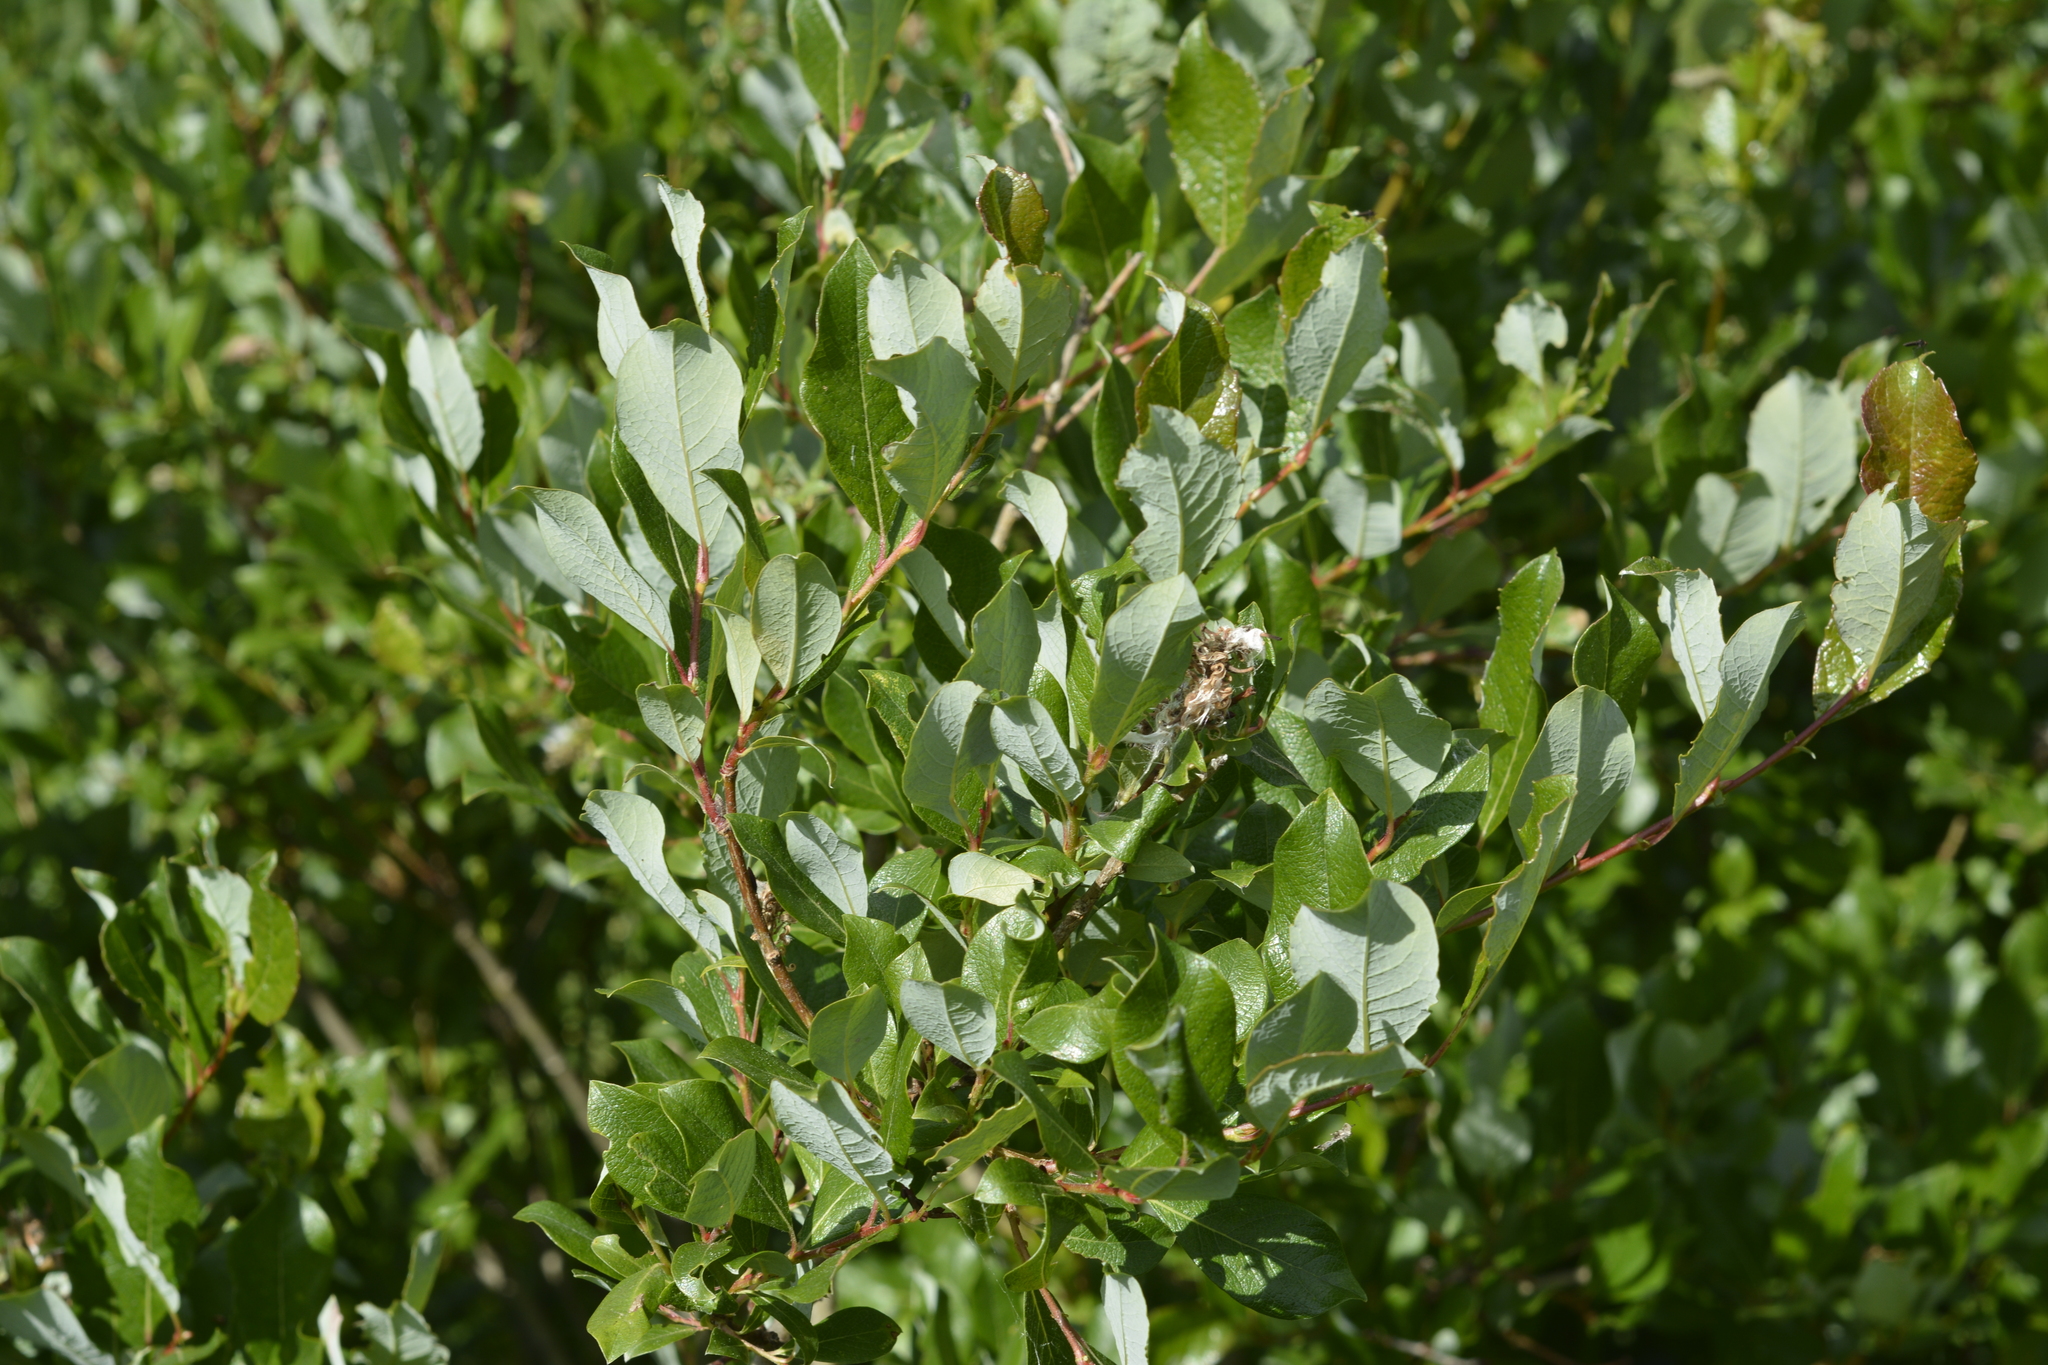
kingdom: Plantae
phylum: Tracheophyta
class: Magnoliopsida
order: Malpighiales
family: Salicaceae
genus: Salix
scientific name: Salix starkeana
